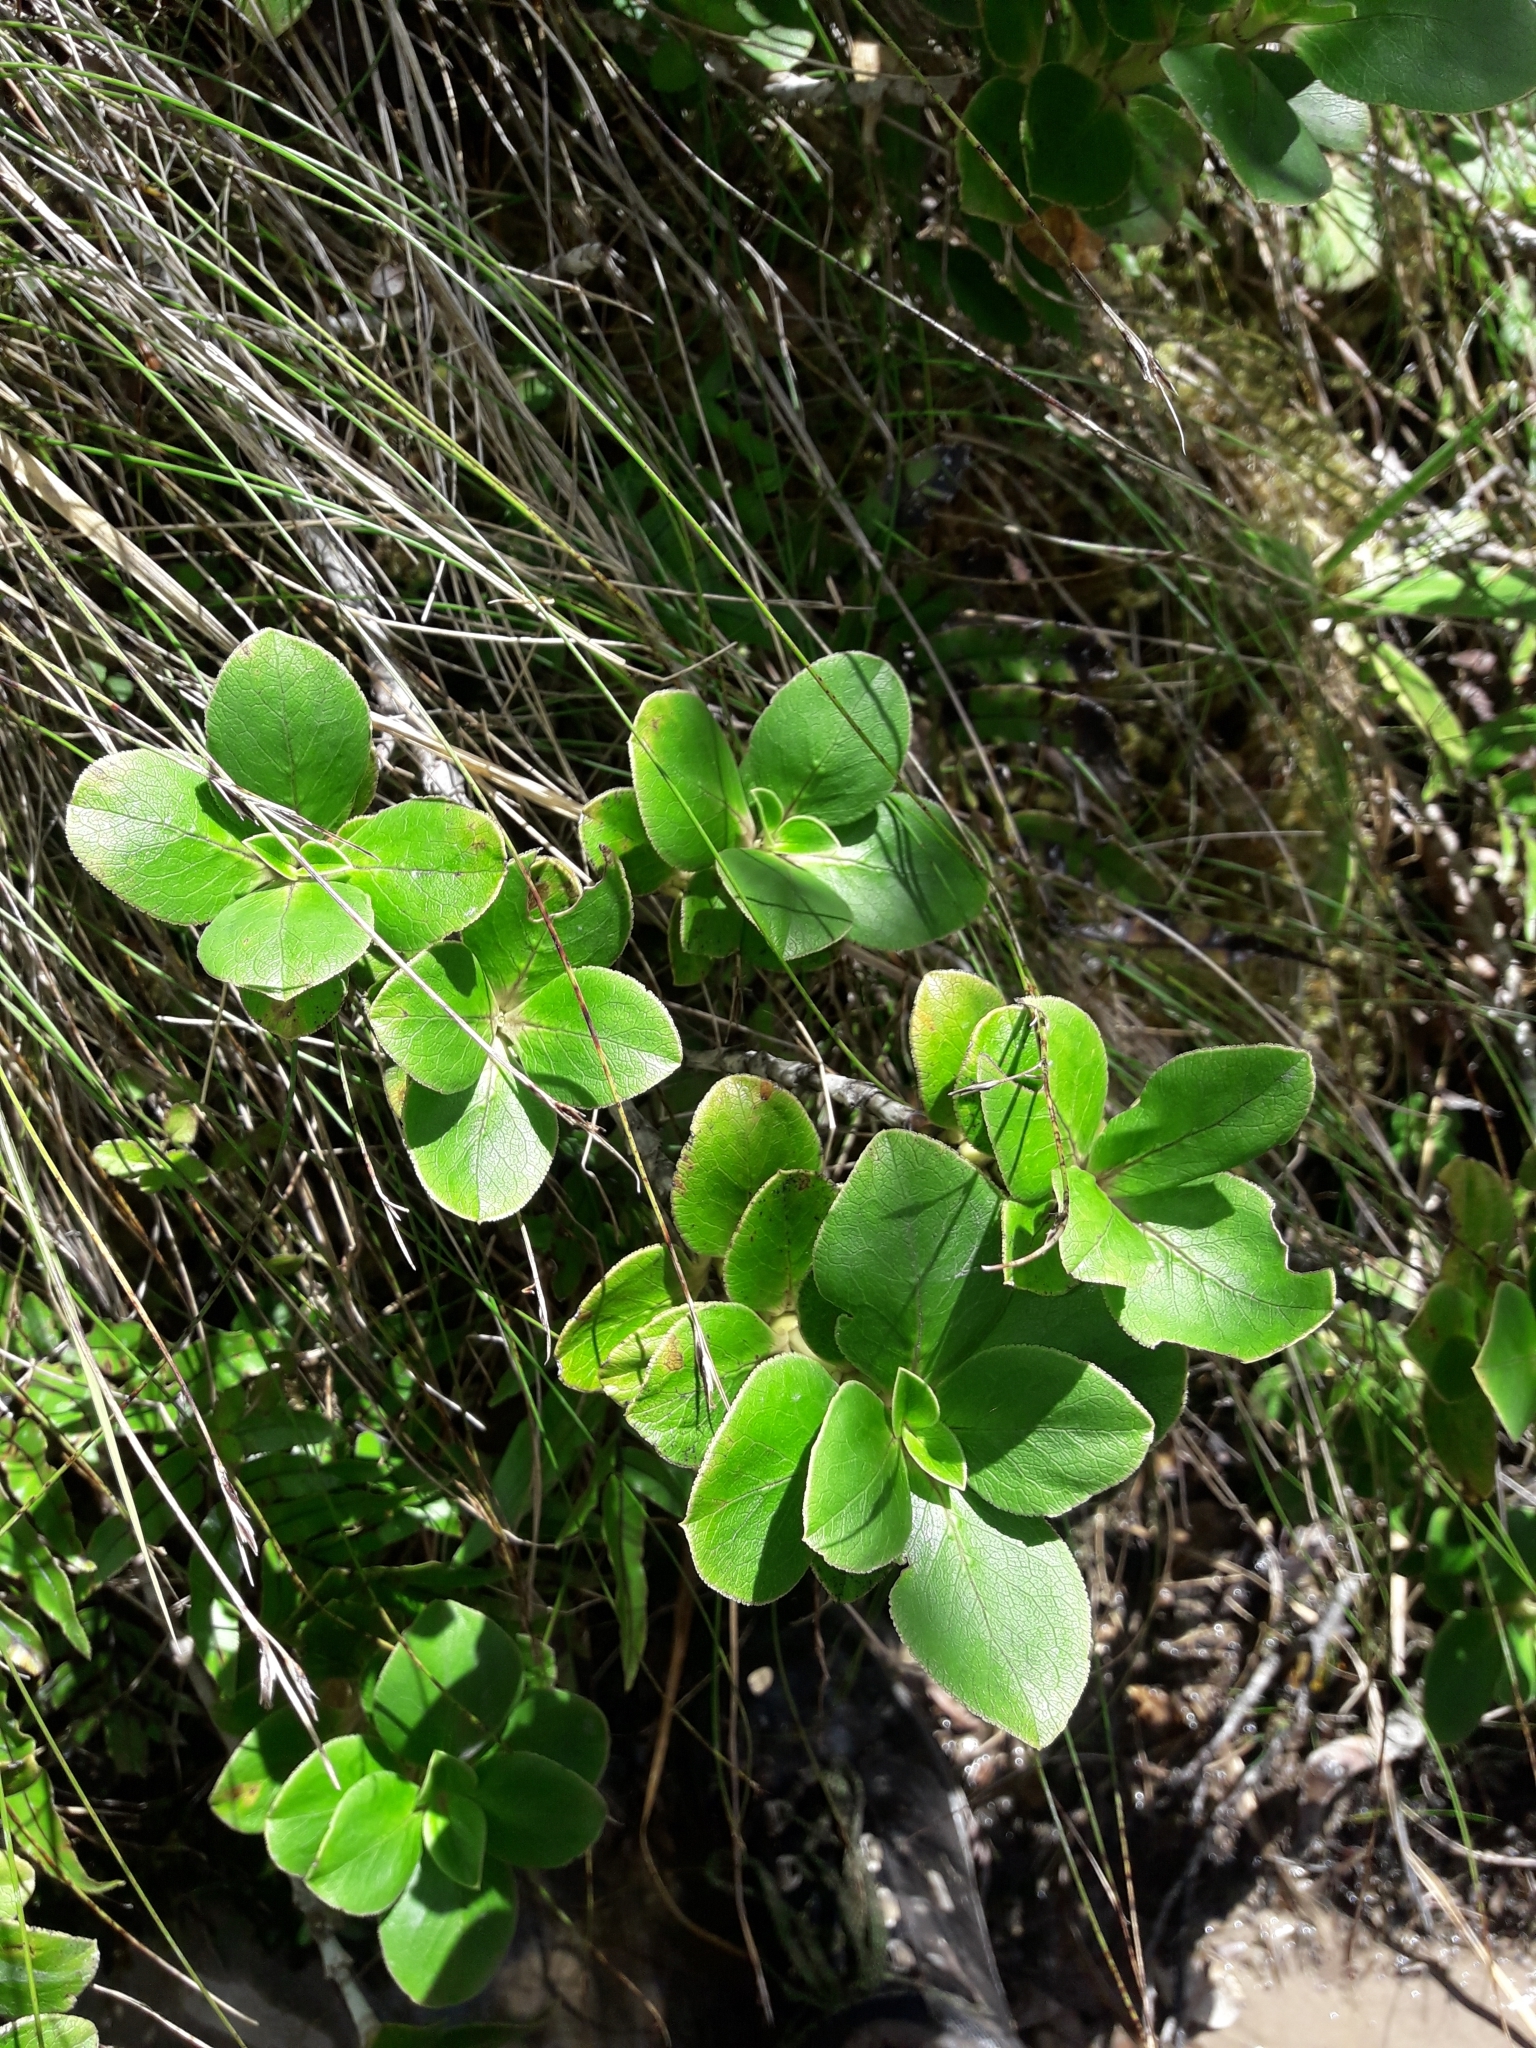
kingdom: Plantae
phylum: Tracheophyta
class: Magnoliopsida
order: Gentianales
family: Rubiaceae
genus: Coprosma
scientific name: Coprosma serrulata
